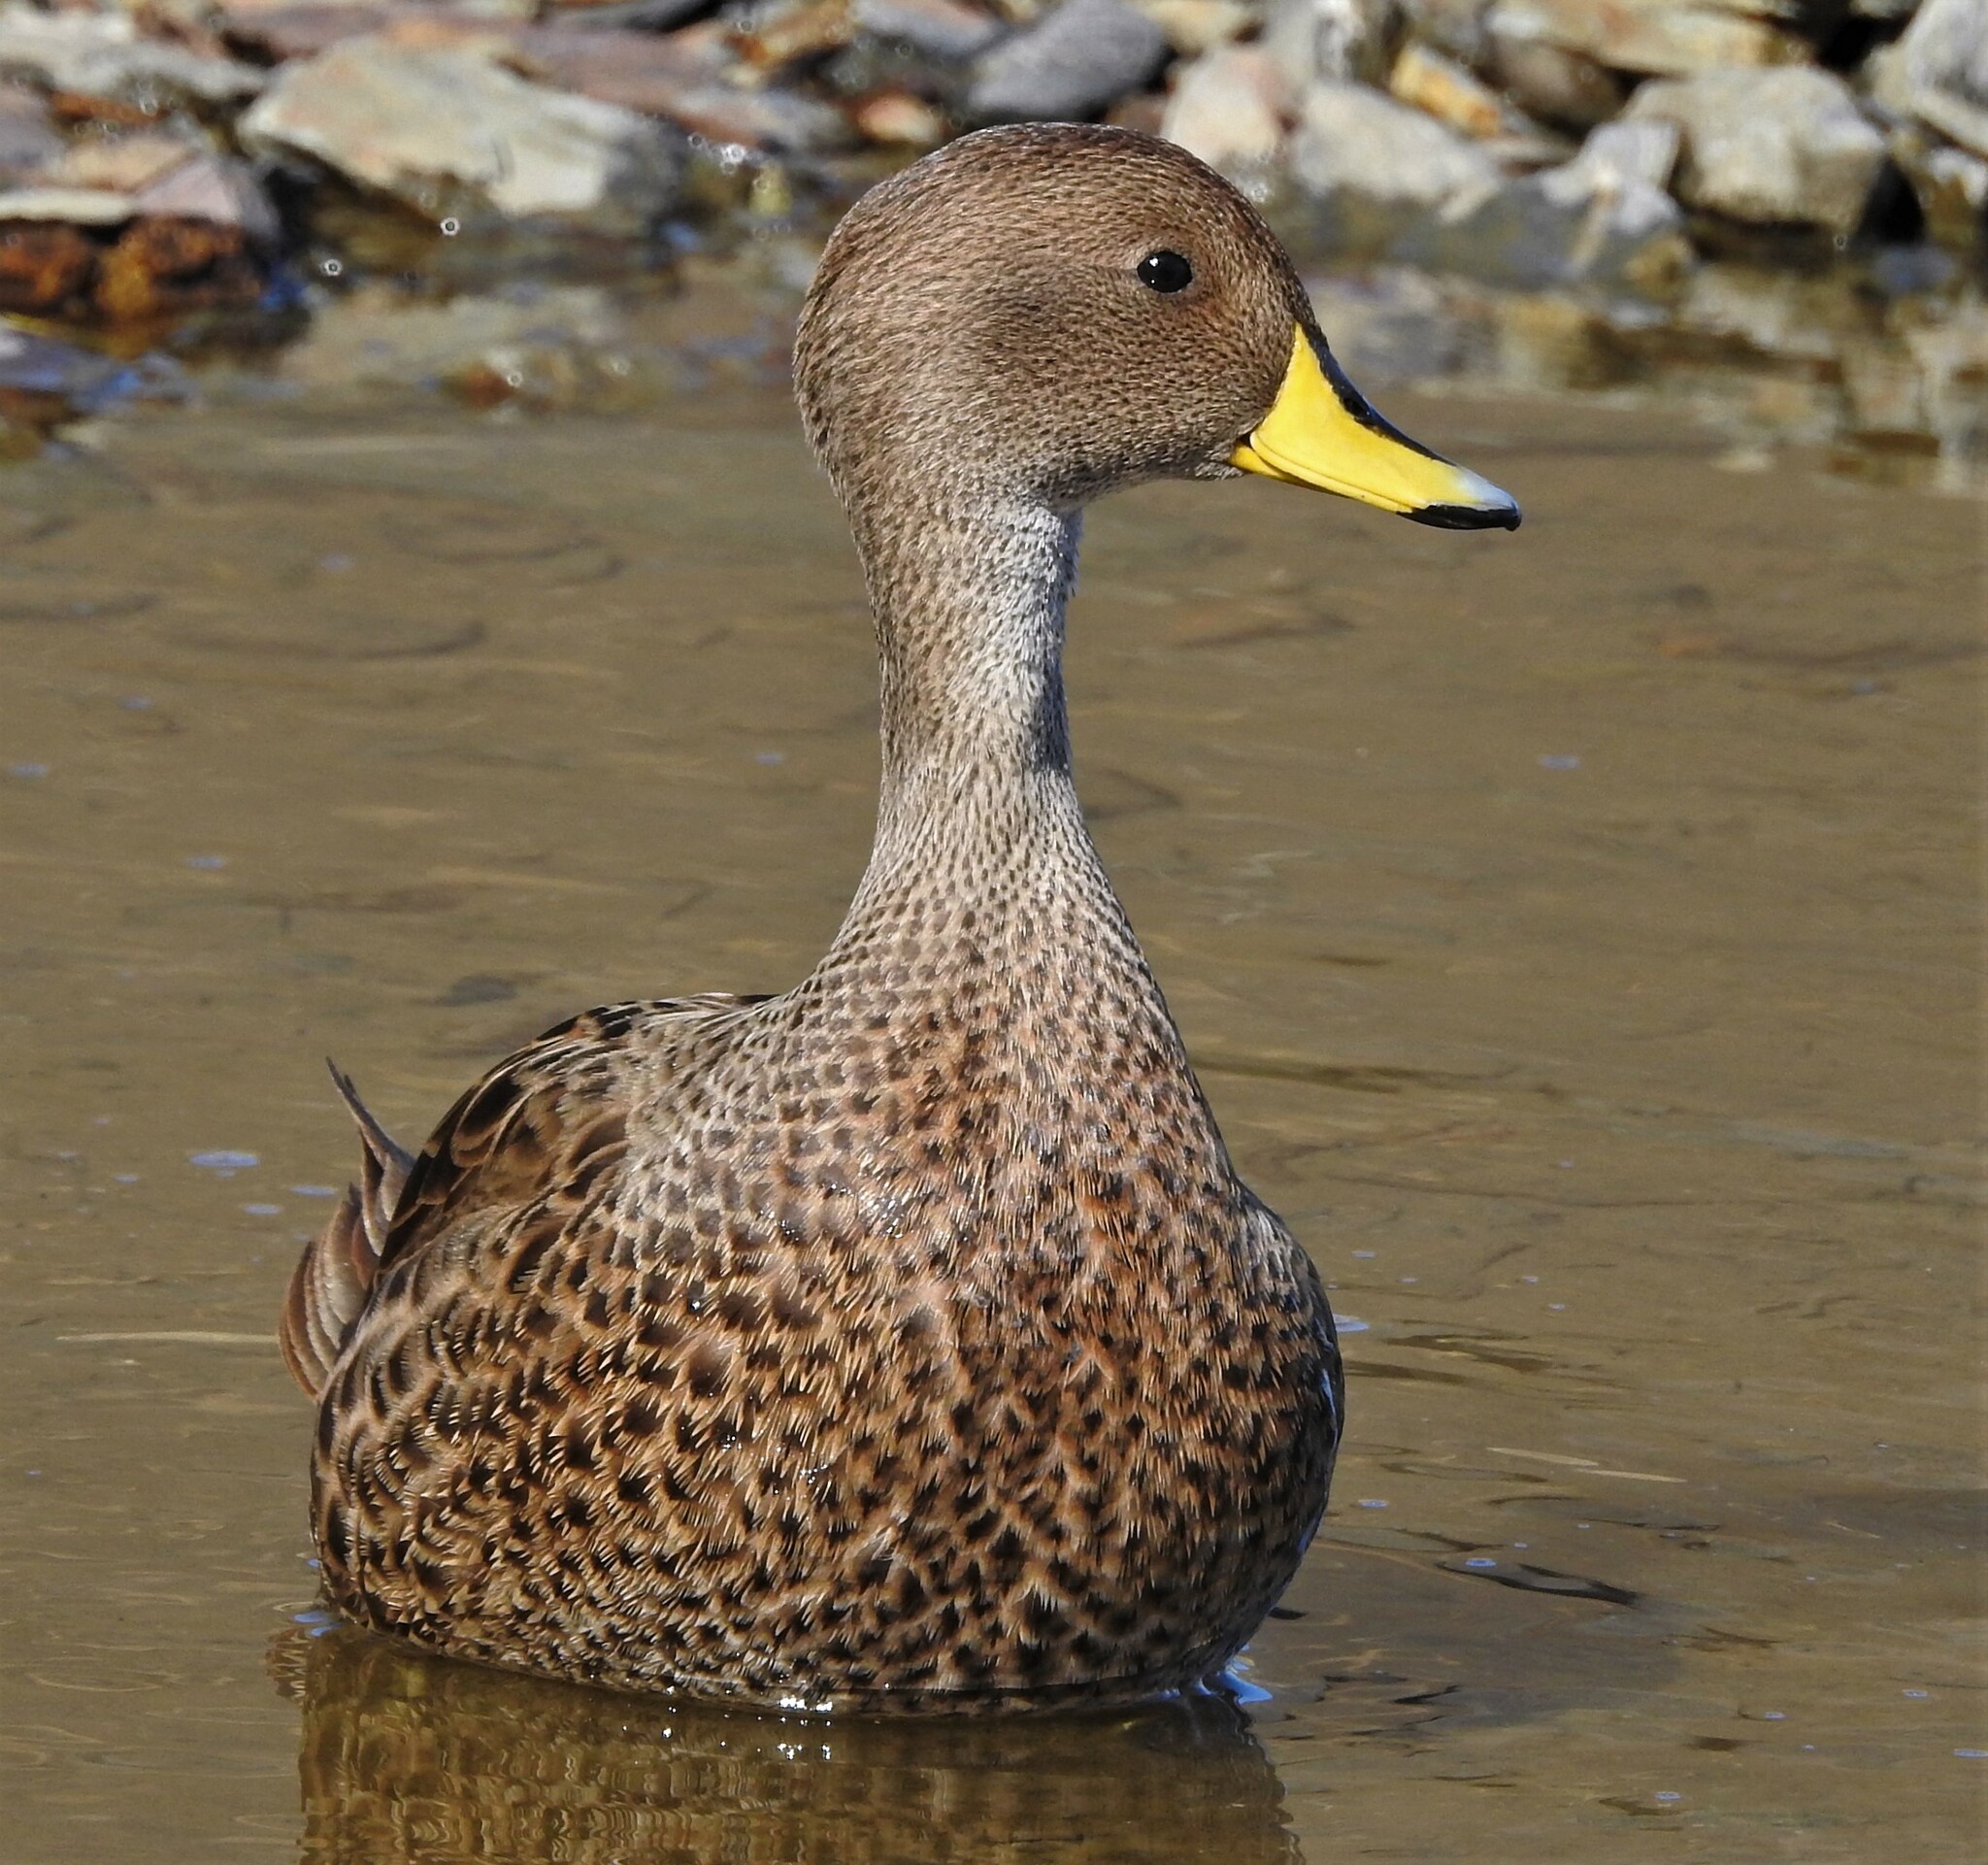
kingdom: Animalia
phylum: Chordata
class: Aves
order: Anseriformes
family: Anatidae
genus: Anas
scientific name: Anas georgica
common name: Yellow-billed pintail
